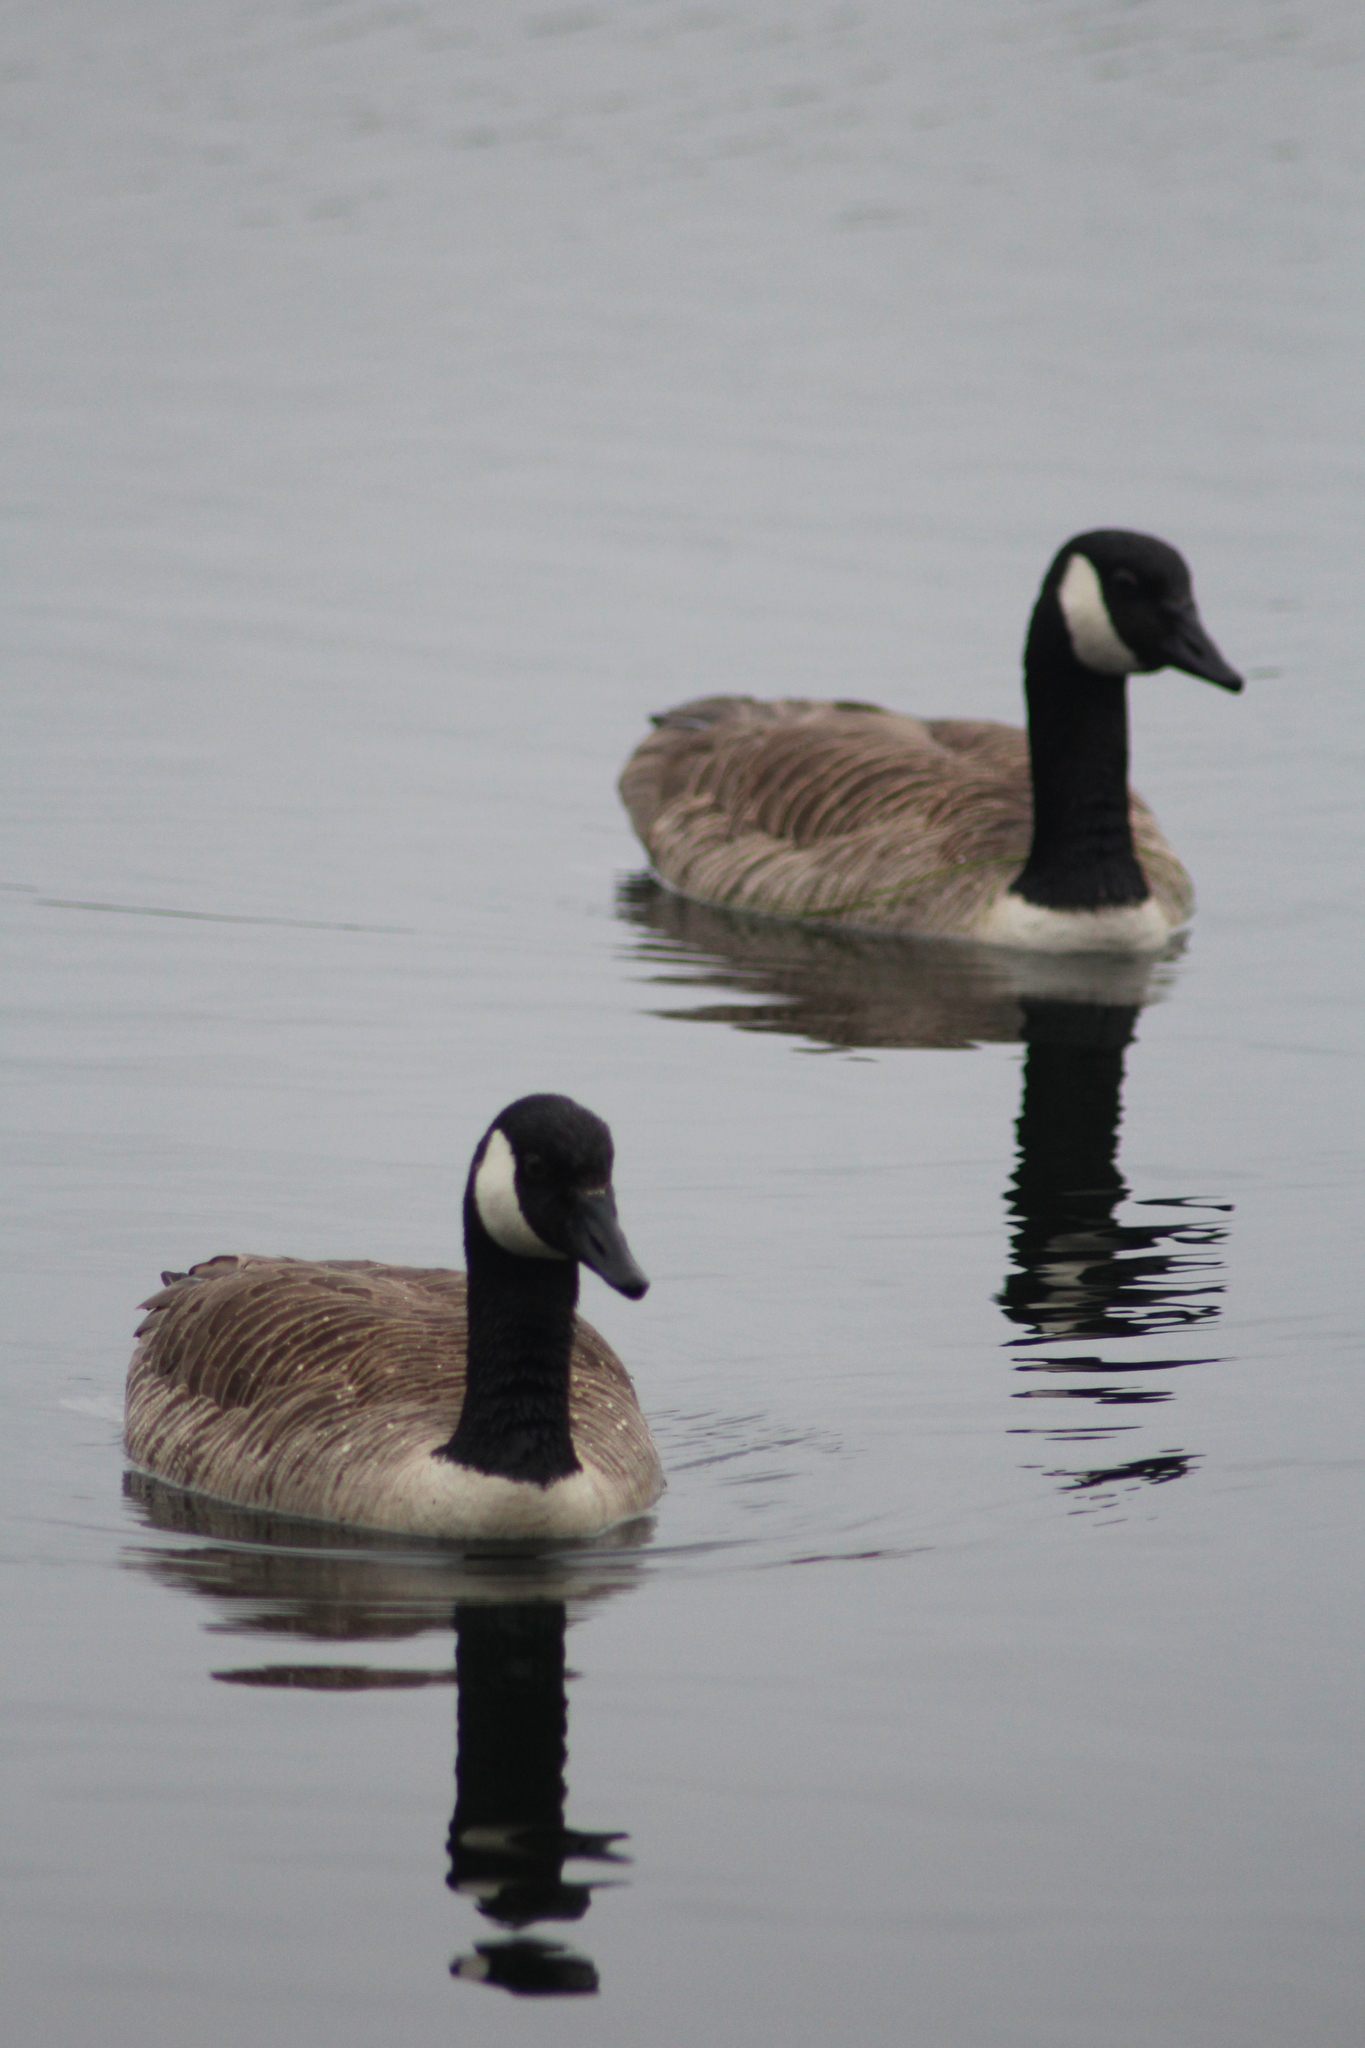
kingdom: Animalia
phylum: Chordata
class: Aves
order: Anseriformes
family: Anatidae
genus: Branta
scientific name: Branta canadensis
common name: Canada goose
